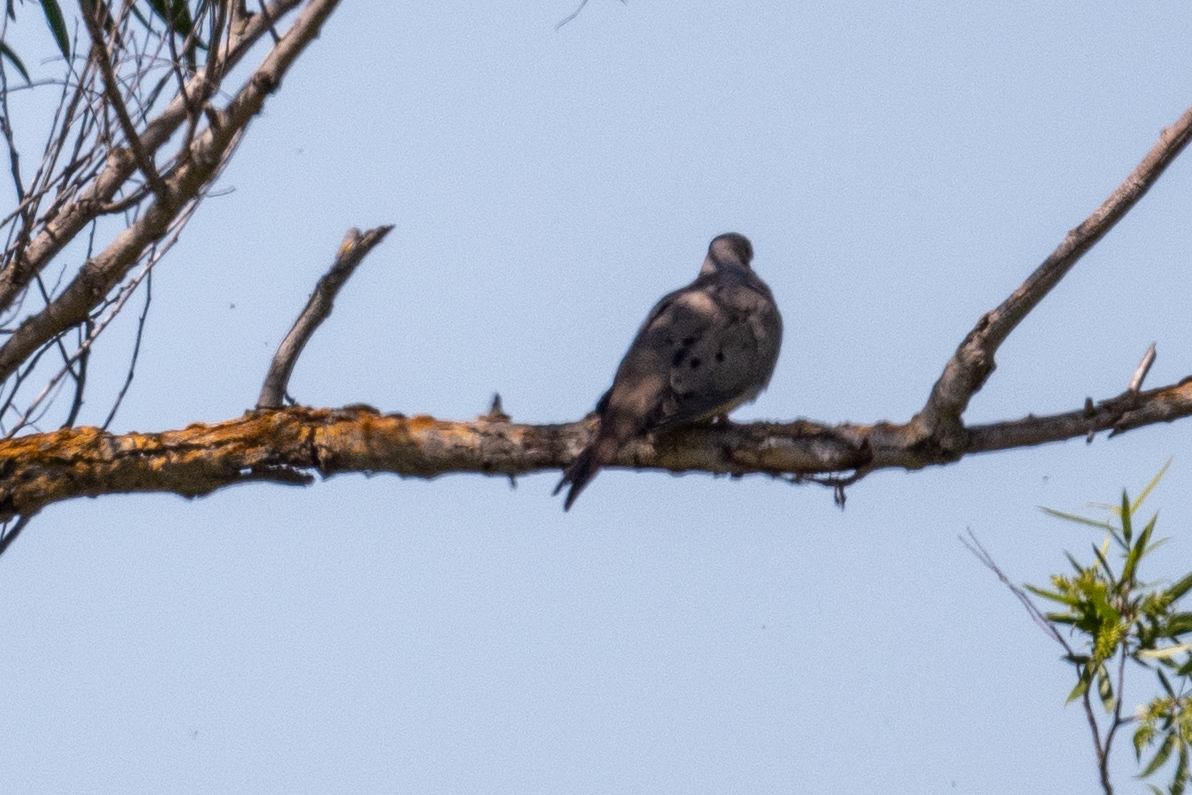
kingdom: Animalia
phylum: Chordata
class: Aves
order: Columbiformes
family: Columbidae
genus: Zenaida
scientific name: Zenaida macroura
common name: Mourning dove
